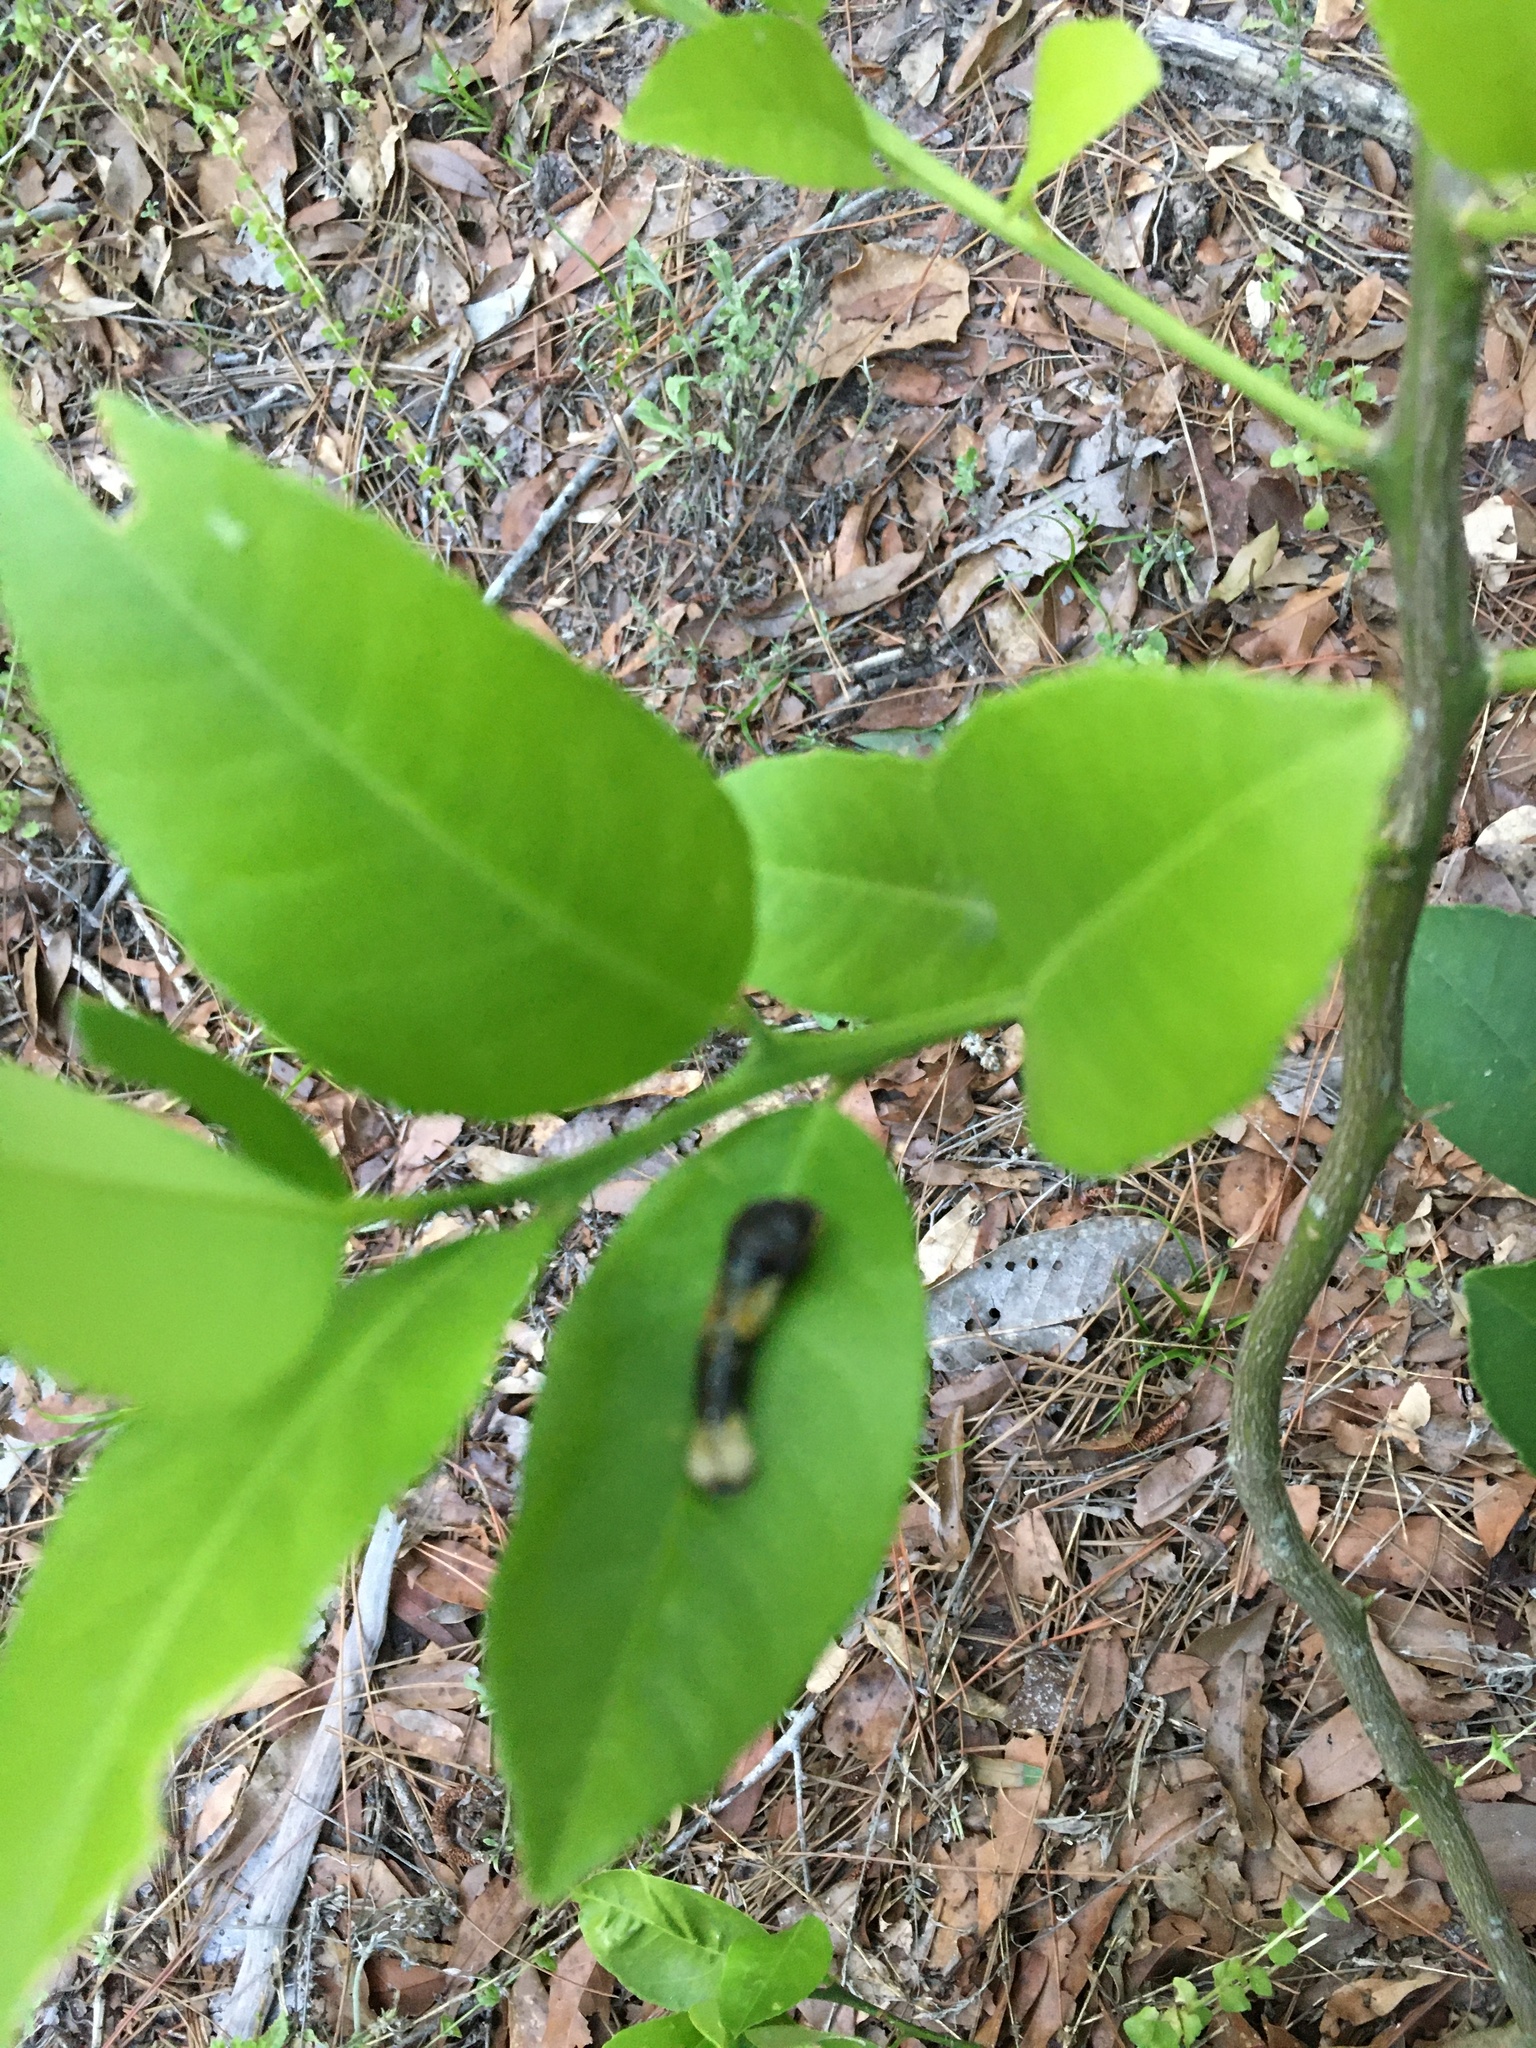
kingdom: Animalia
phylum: Arthropoda
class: Insecta
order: Lepidoptera
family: Papilionidae
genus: Papilio
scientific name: Papilio cresphontes
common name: Giant swallowtail
